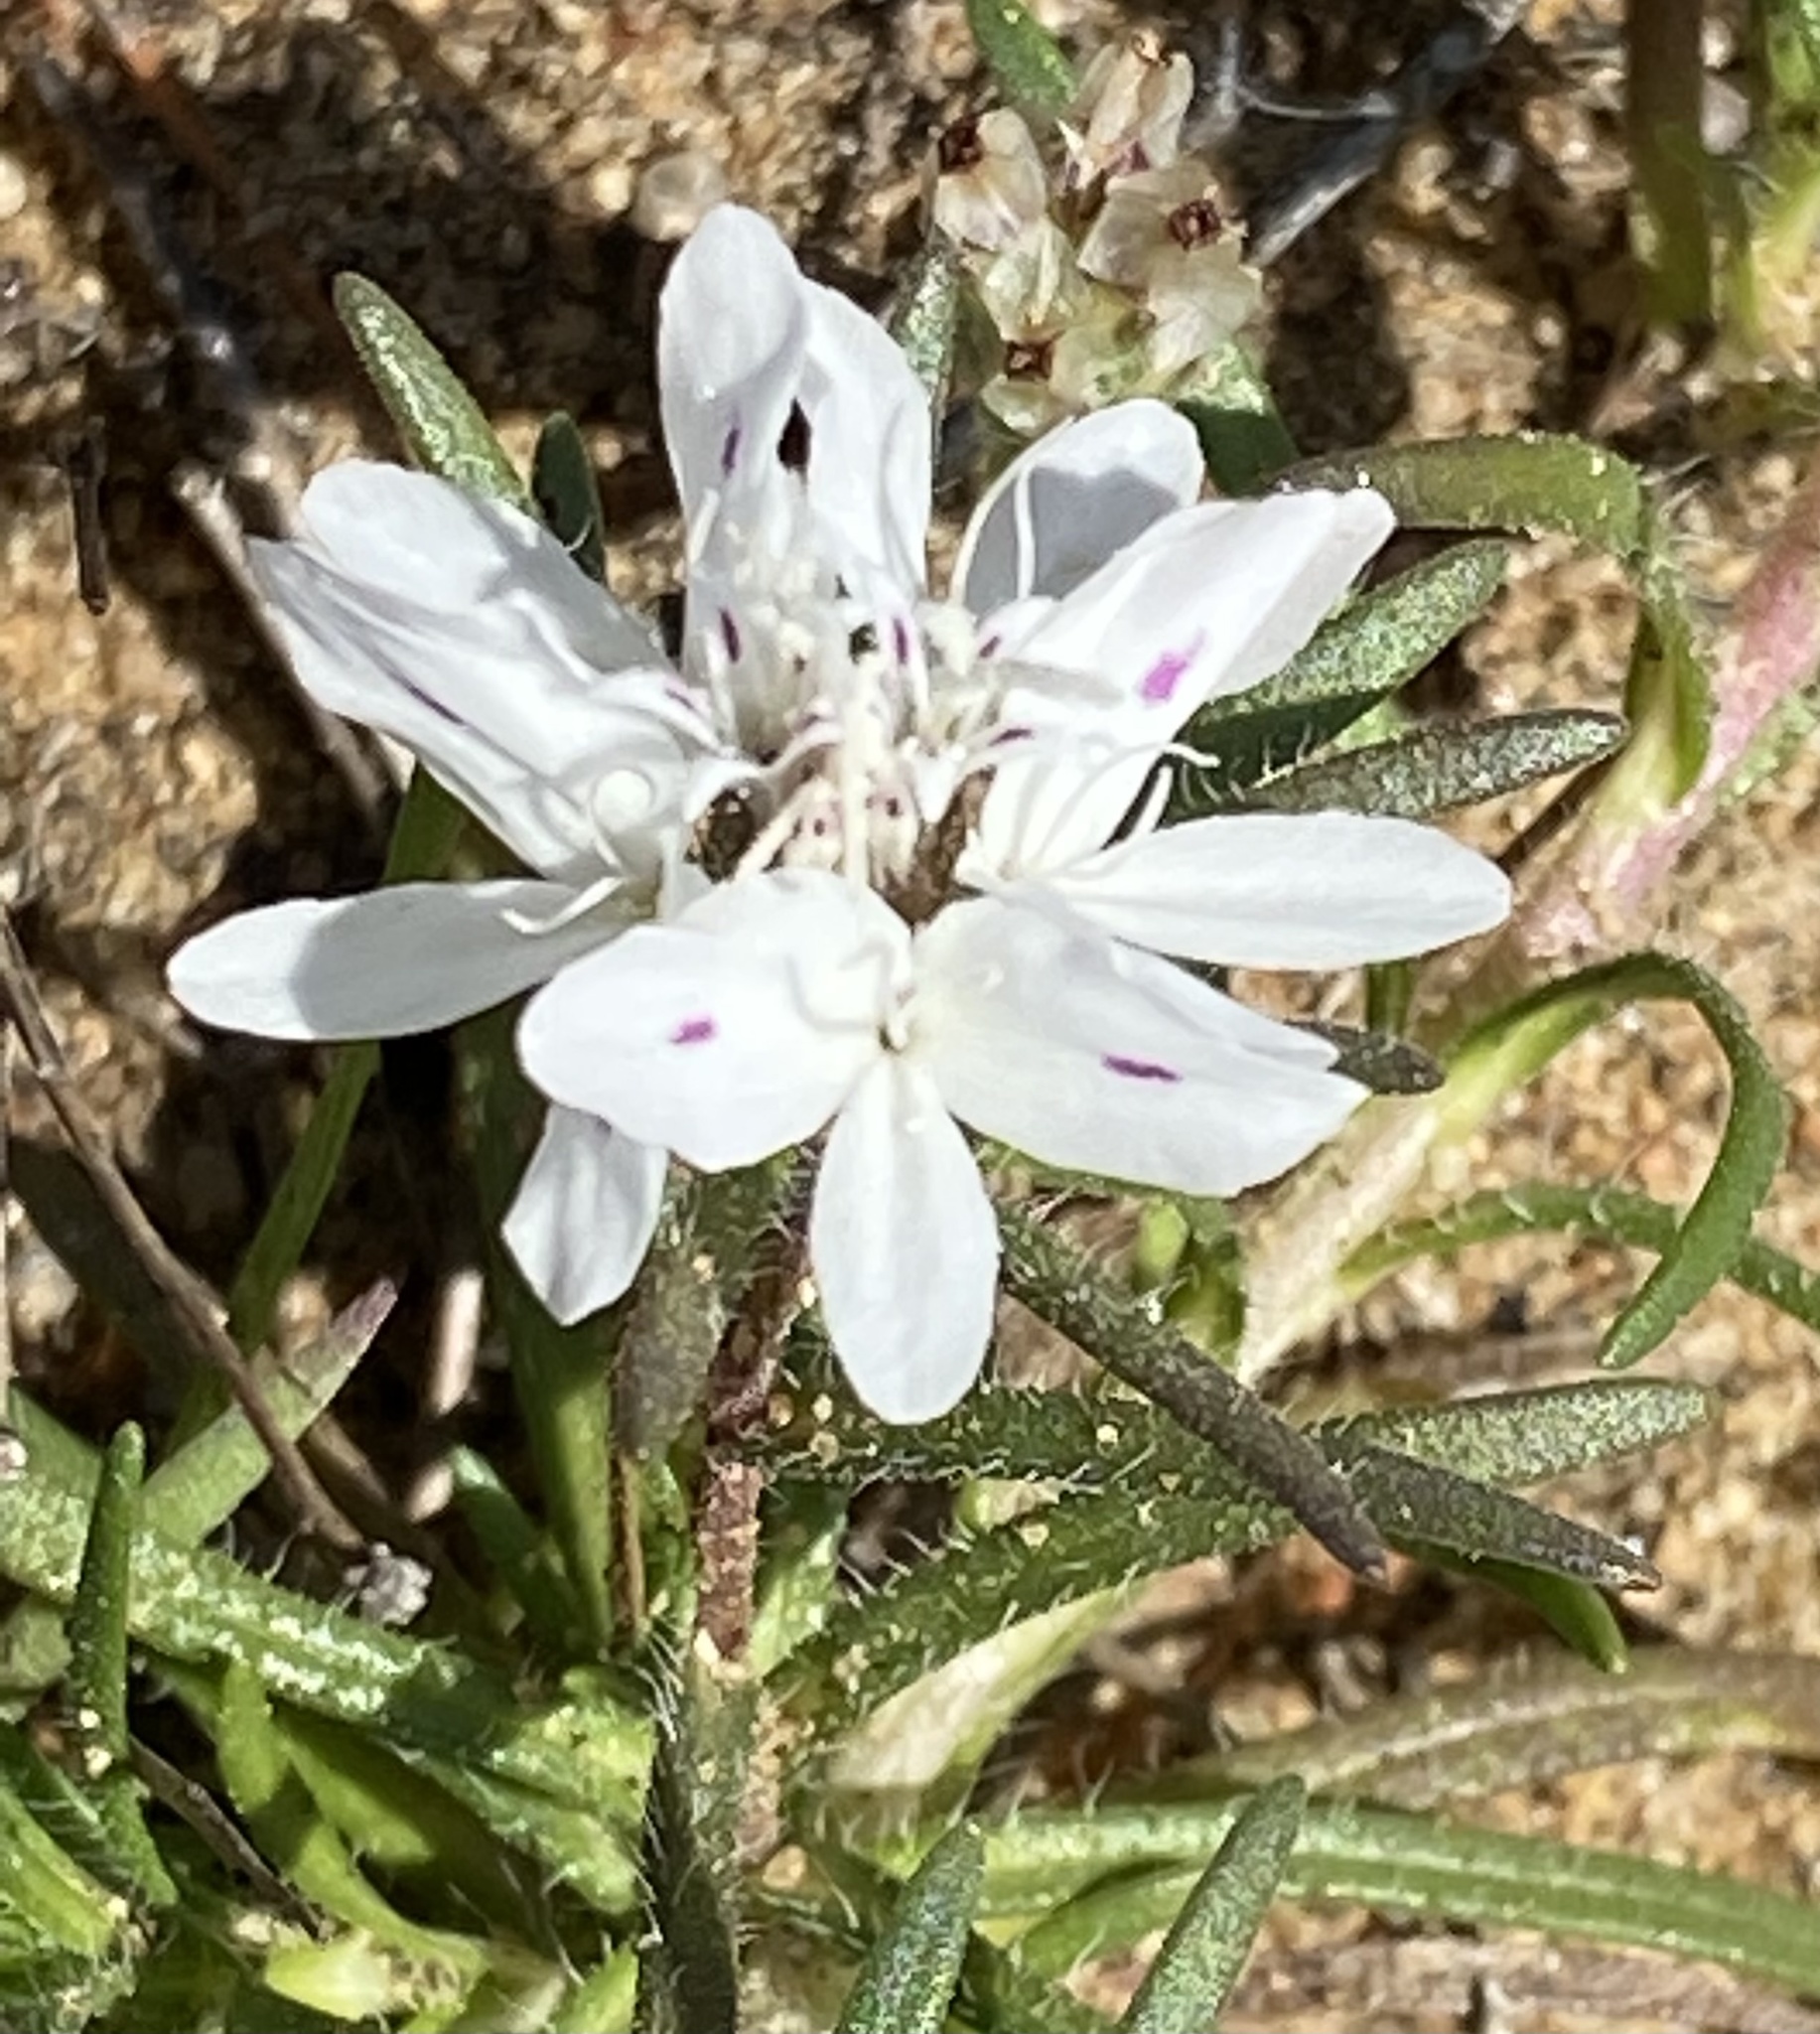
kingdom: Plantae
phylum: Tracheophyta
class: Magnoliopsida
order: Asterales
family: Asteraceae
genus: Osmadenia
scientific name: Osmadenia tenella
